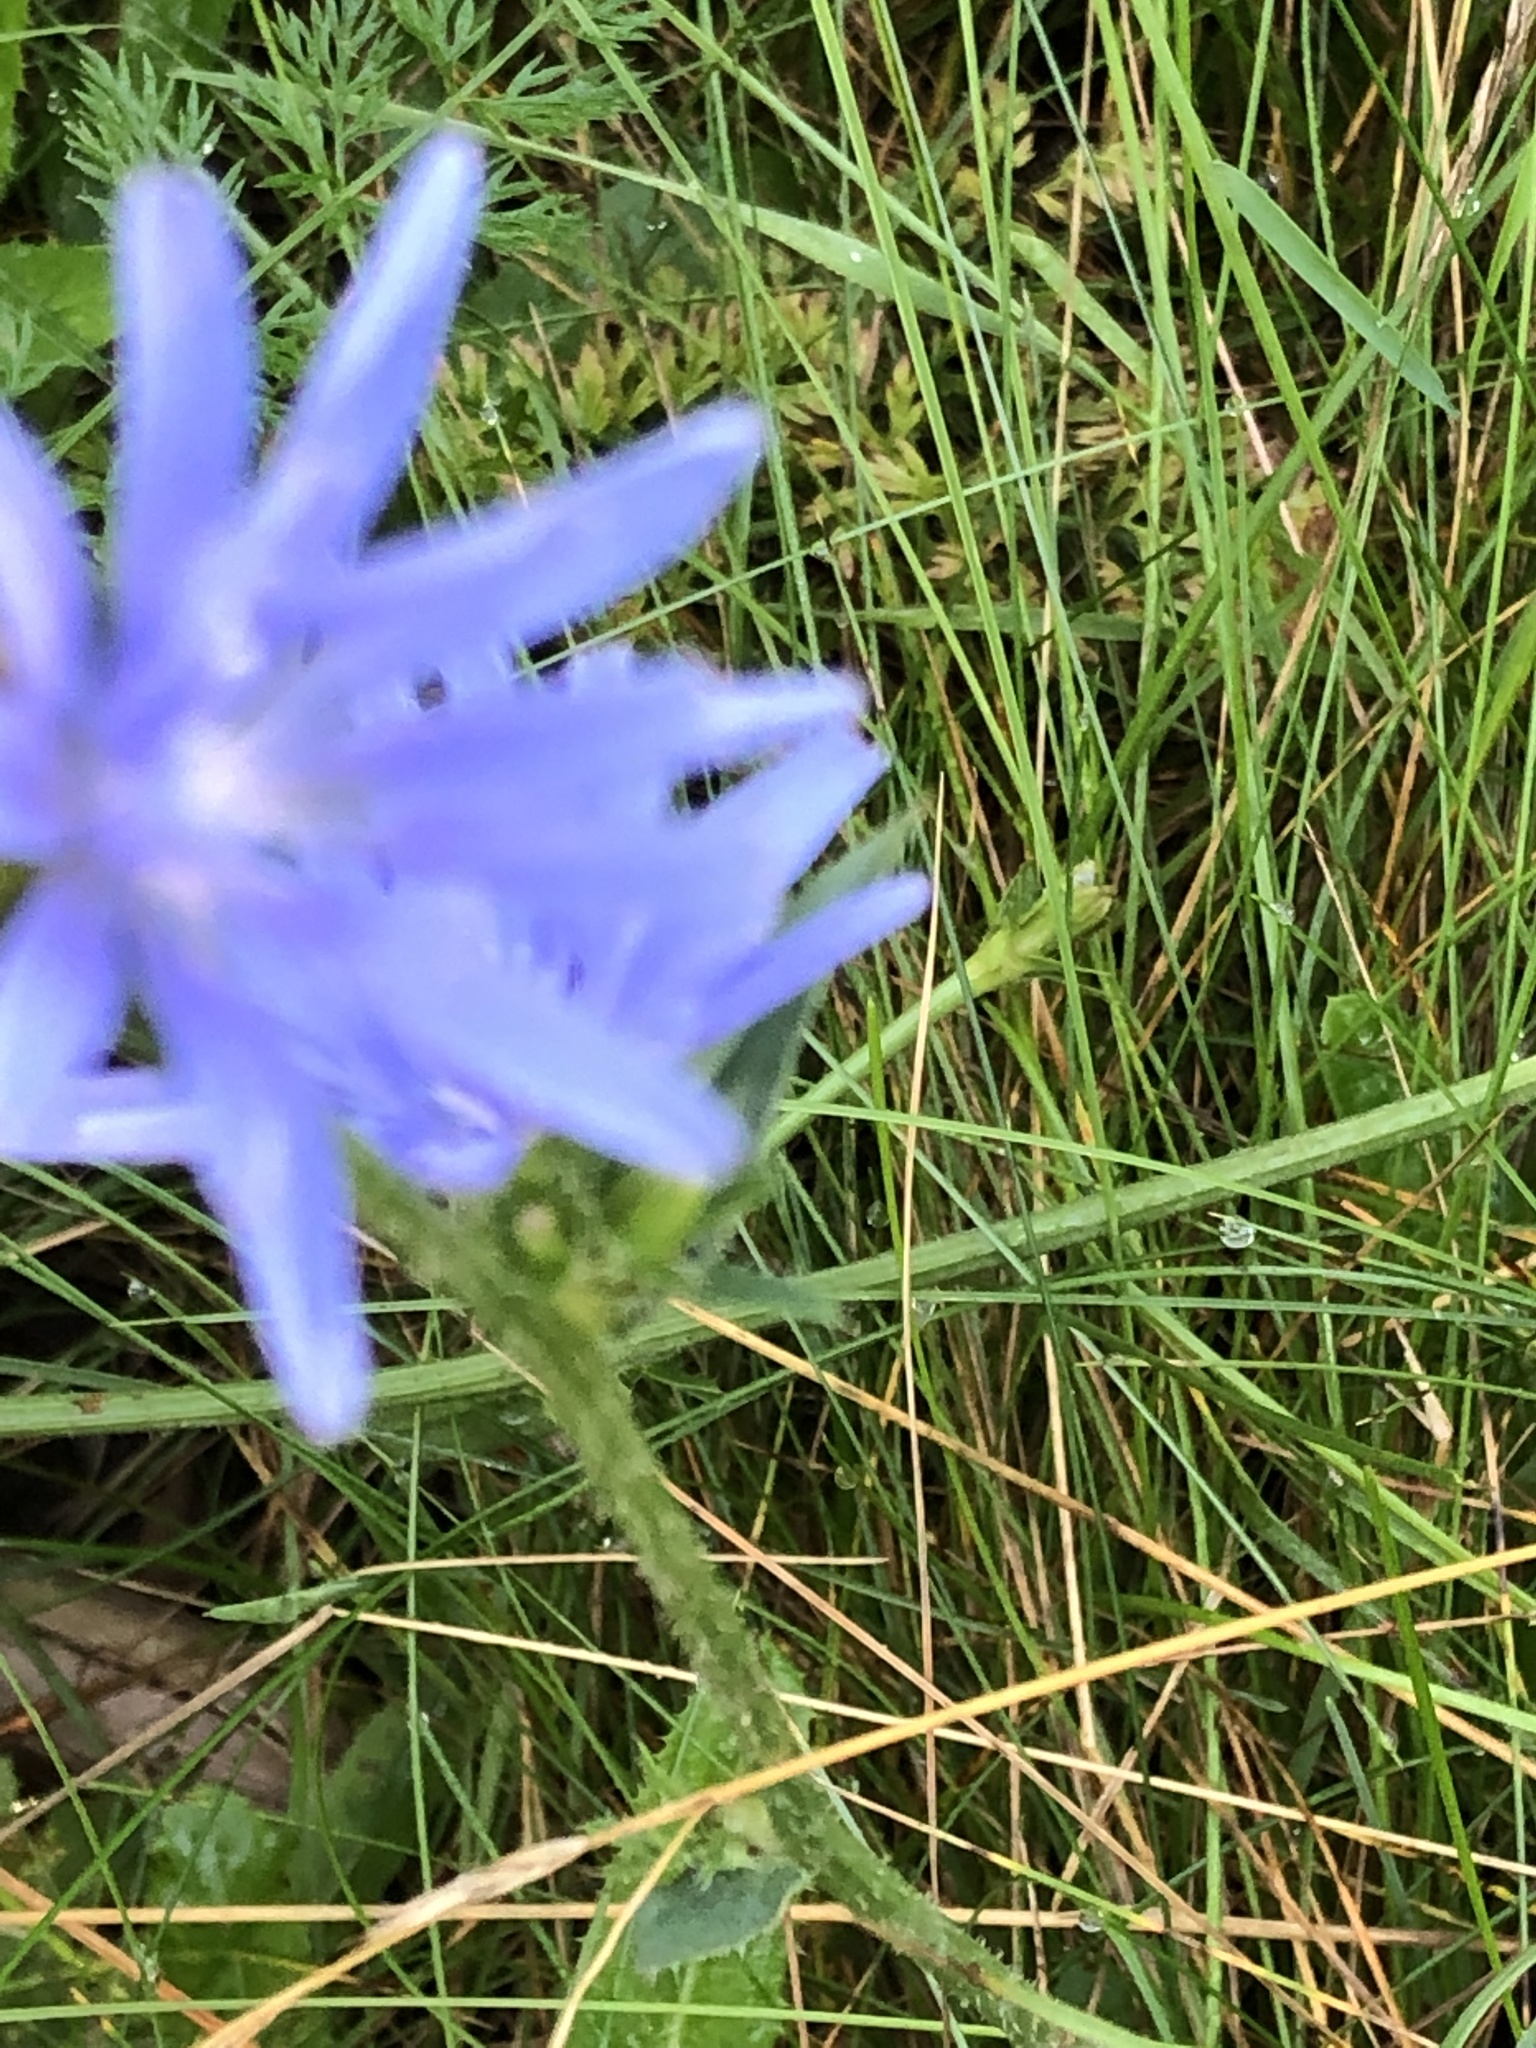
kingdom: Plantae
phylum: Tracheophyta
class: Magnoliopsida
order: Asterales
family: Asteraceae
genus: Cichorium
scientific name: Cichorium intybus
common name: Chicory
